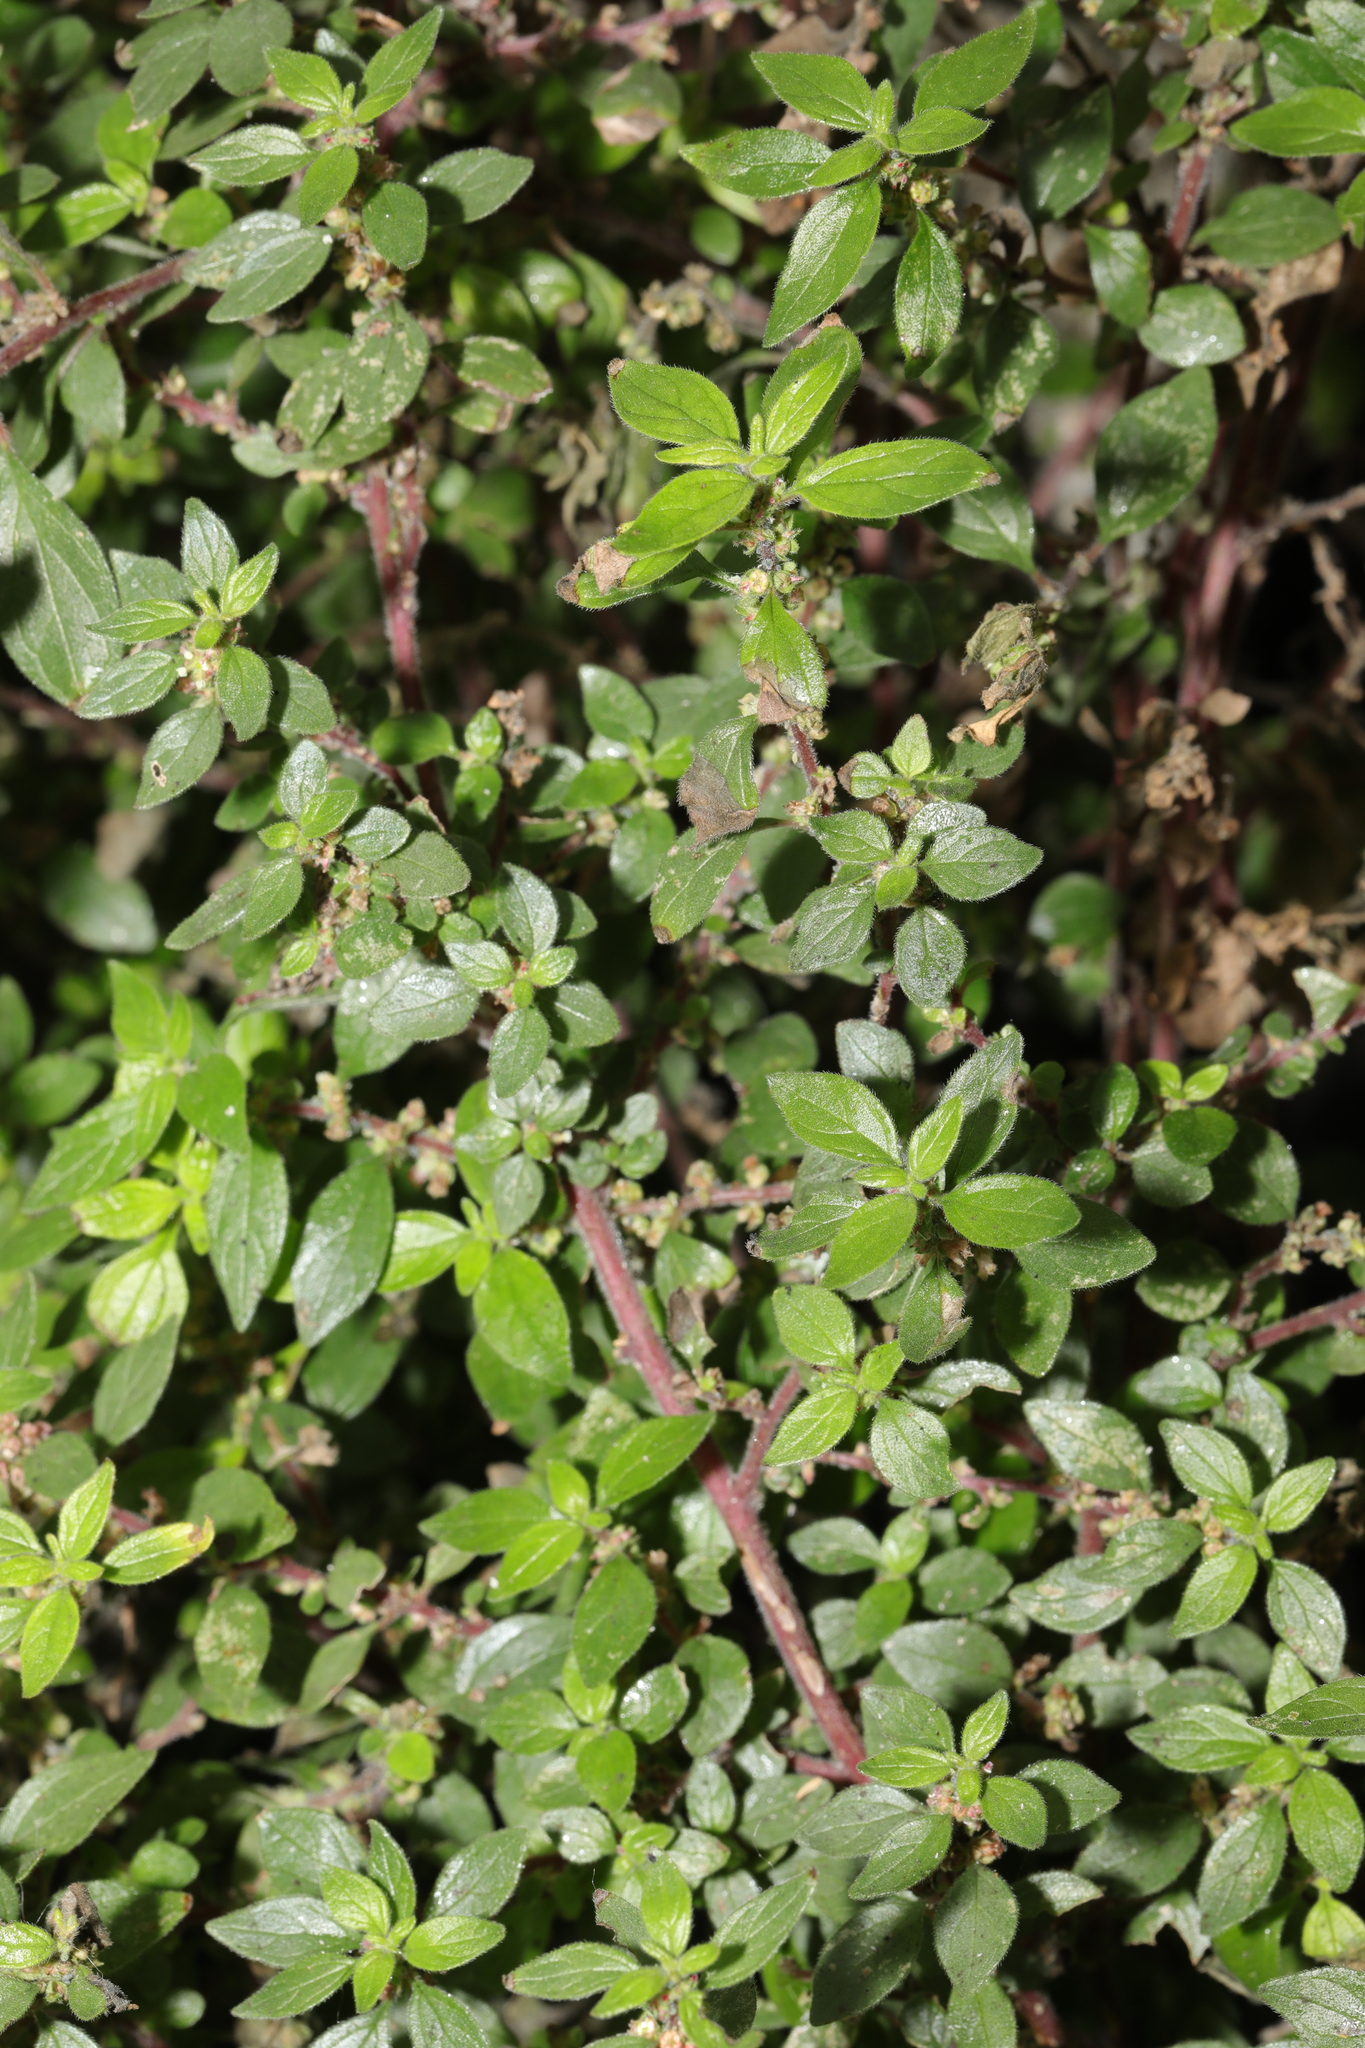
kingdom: Plantae
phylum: Tracheophyta
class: Magnoliopsida
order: Rosales
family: Urticaceae
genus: Parietaria
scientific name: Parietaria judaica
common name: Pellitory-of-the-wall
